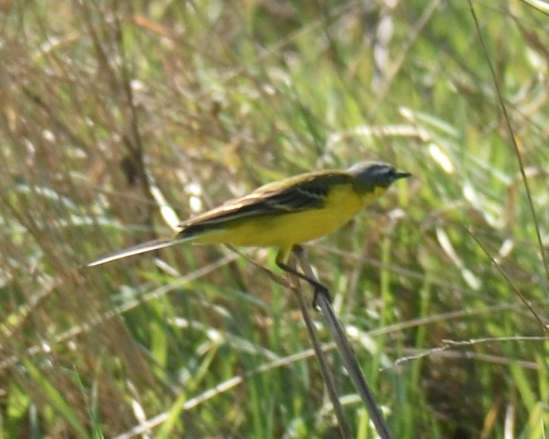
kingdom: Animalia
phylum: Chordata
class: Aves
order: Passeriformes
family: Motacillidae
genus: Motacilla
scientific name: Motacilla flava
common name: Western yellow wagtail
